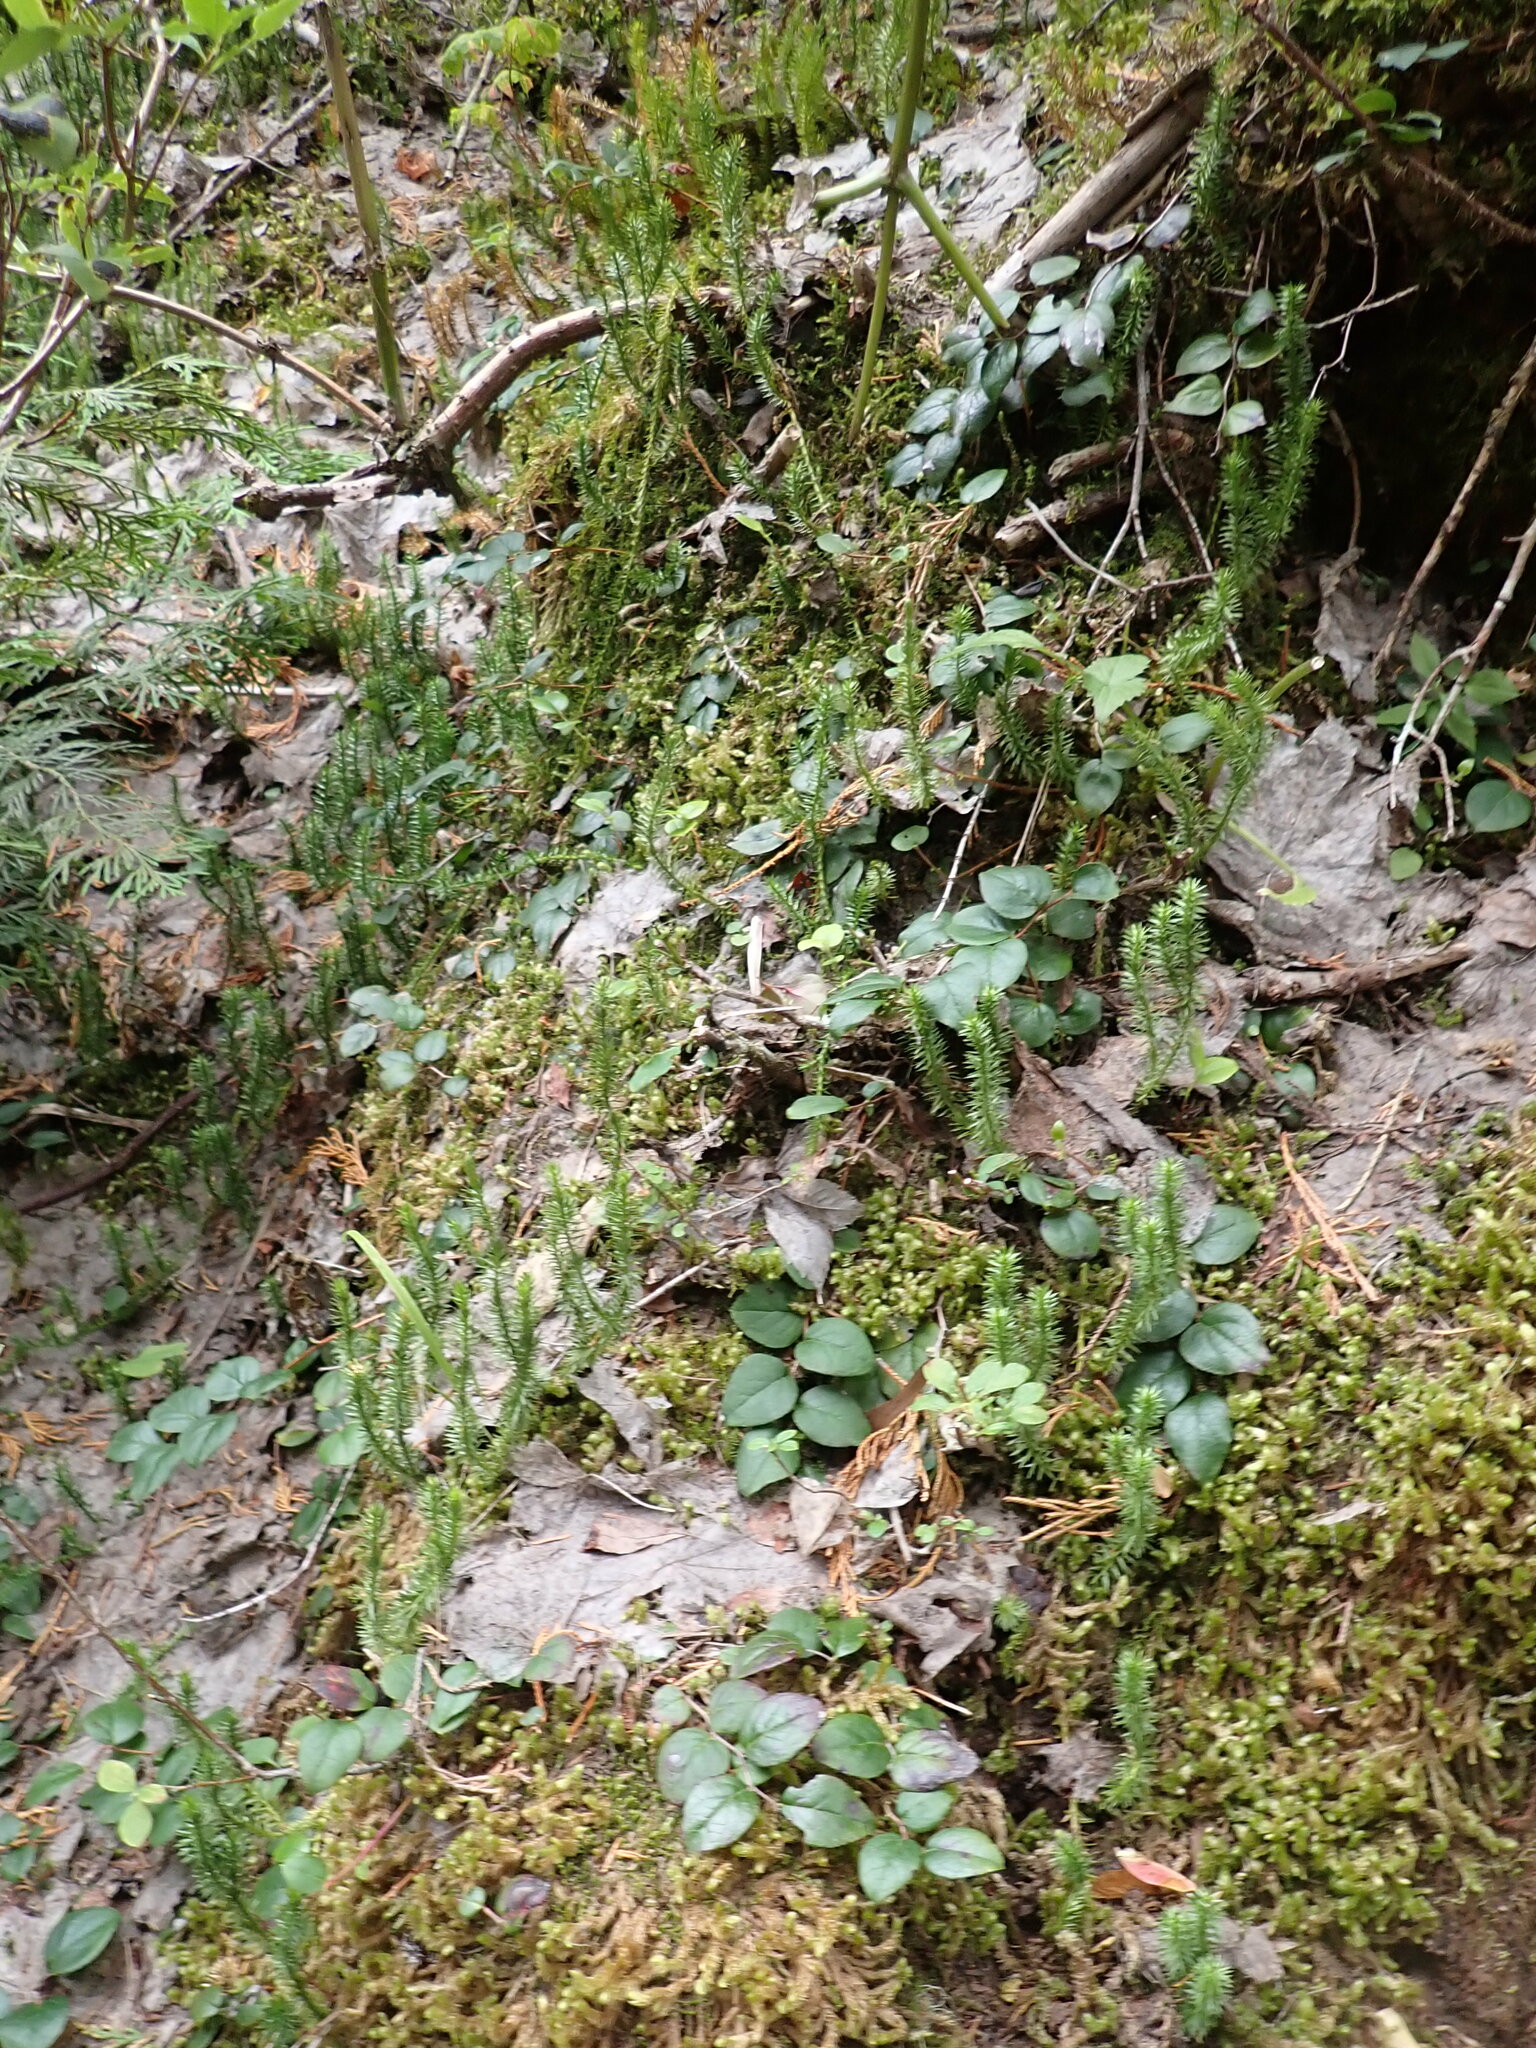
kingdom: Plantae
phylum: Tracheophyta
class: Magnoliopsida
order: Ericales
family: Ericaceae
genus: Gaultheria
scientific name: Gaultheria ovatifolia
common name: Oregon wintergreen
